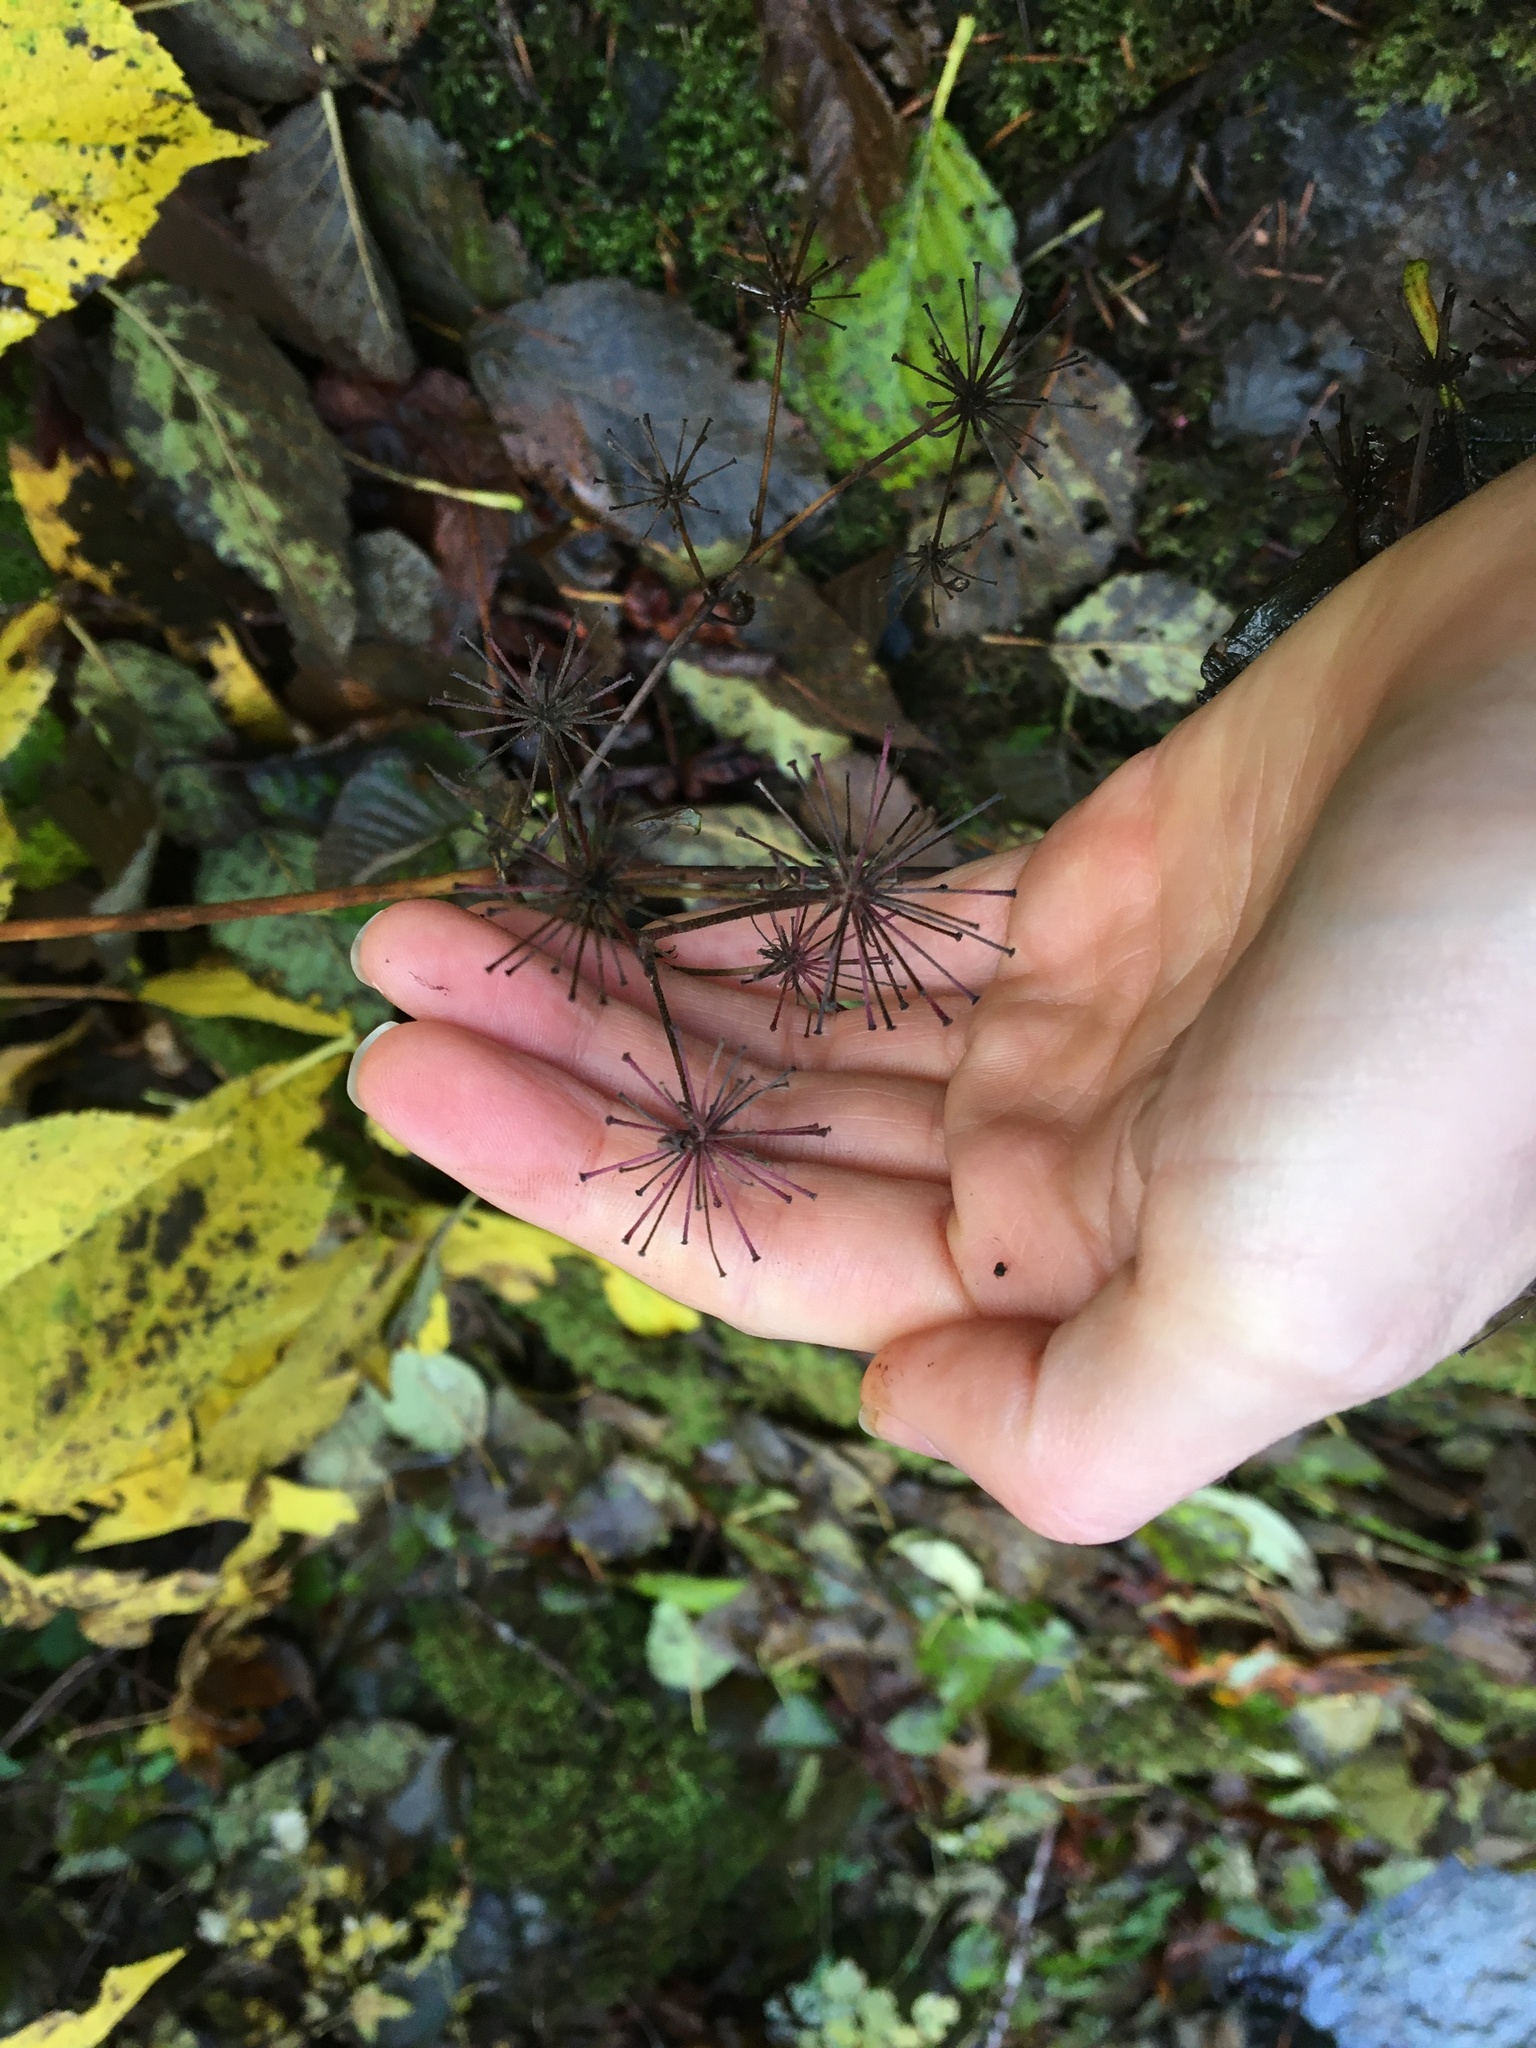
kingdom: Plantae
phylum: Tracheophyta
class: Magnoliopsida
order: Apiales
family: Araliaceae
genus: Aralia
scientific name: Aralia californica
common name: California-ginseng
